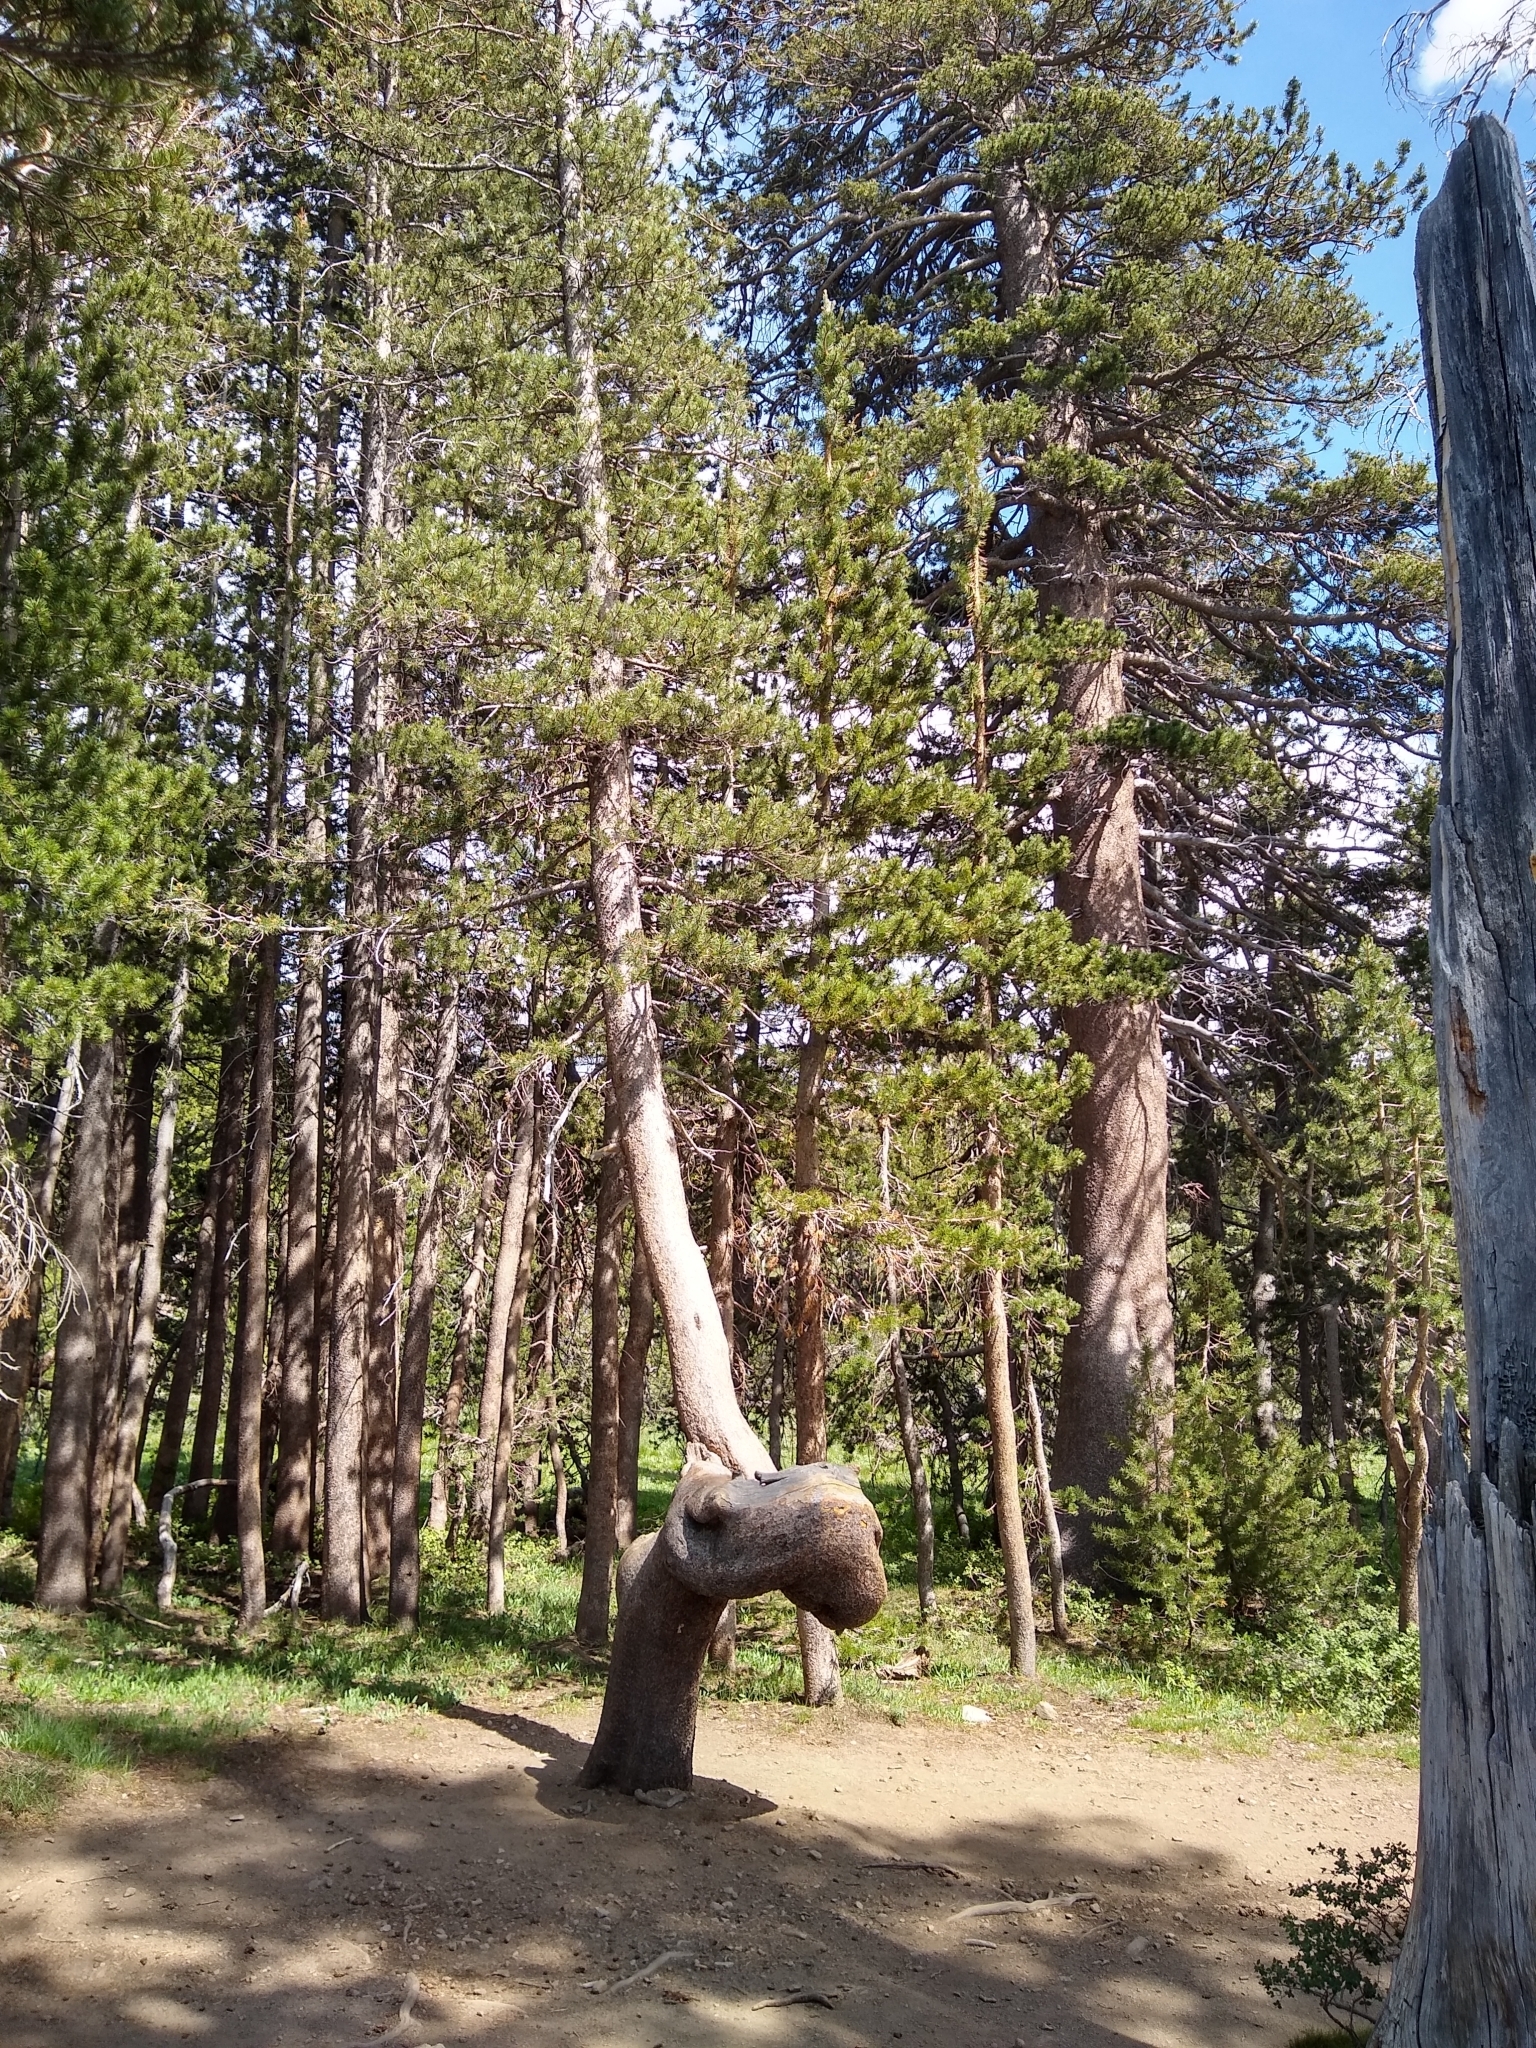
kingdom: Plantae
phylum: Tracheophyta
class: Pinopsida
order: Pinales
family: Pinaceae
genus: Pinus
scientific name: Pinus contorta
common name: Lodgepole pine
